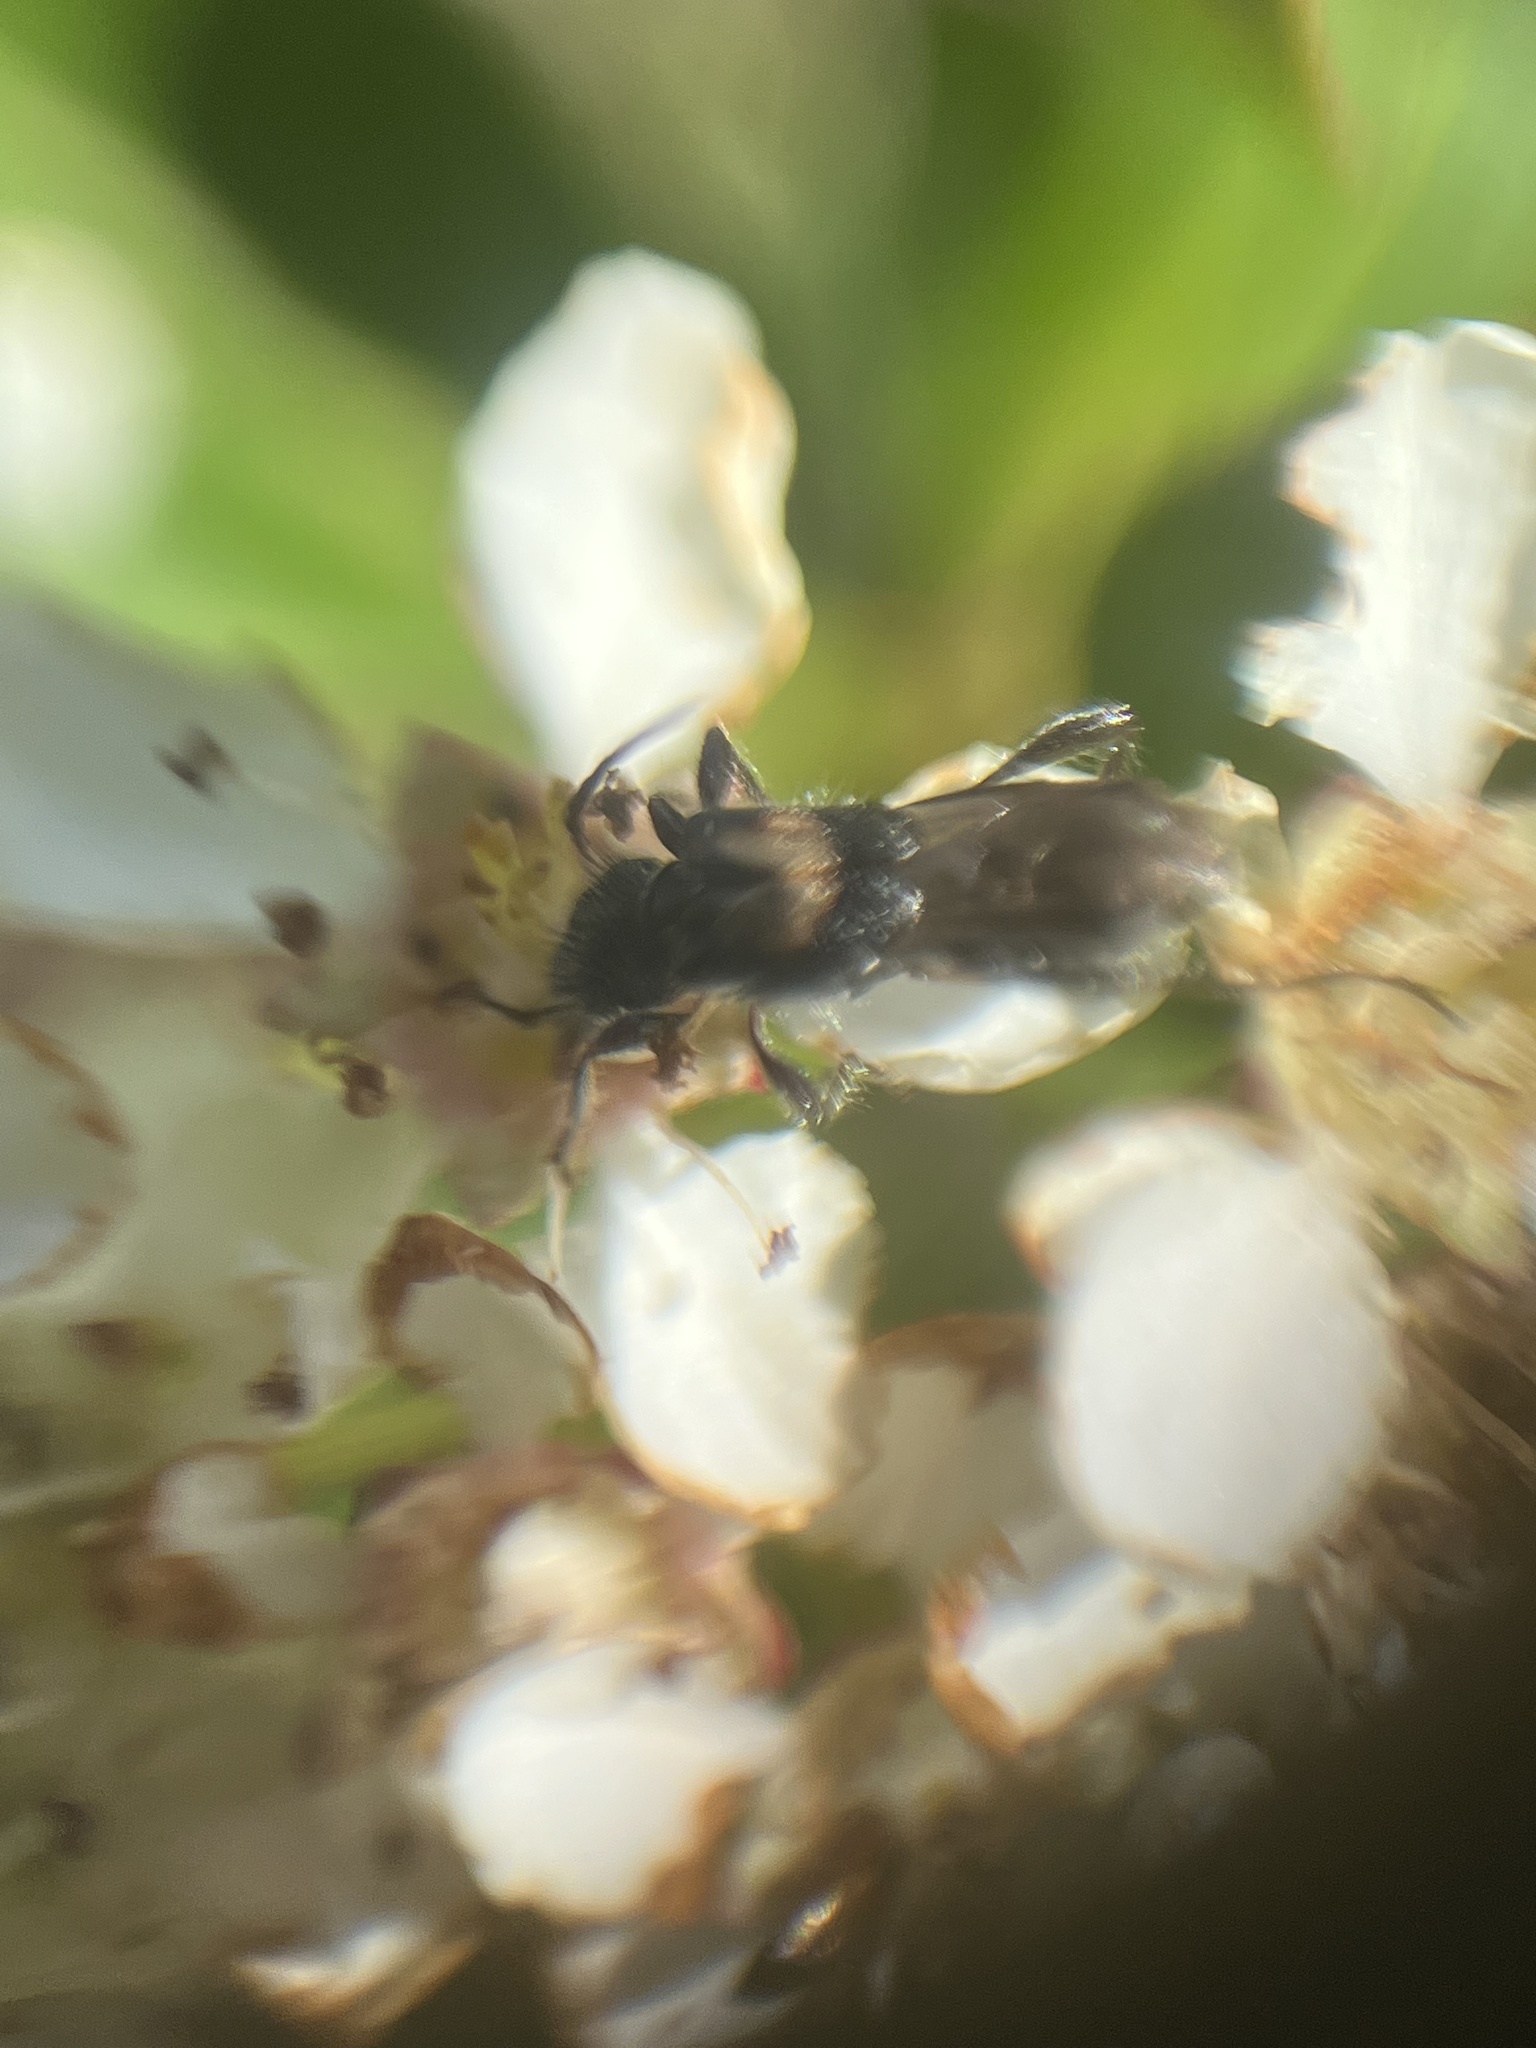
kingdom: Animalia
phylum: Arthropoda
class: Insecta
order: Coleoptera
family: Cerambycidae
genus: Molorchus
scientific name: Molorchus bimaculatus
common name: Bimaculate longhorn beetle
